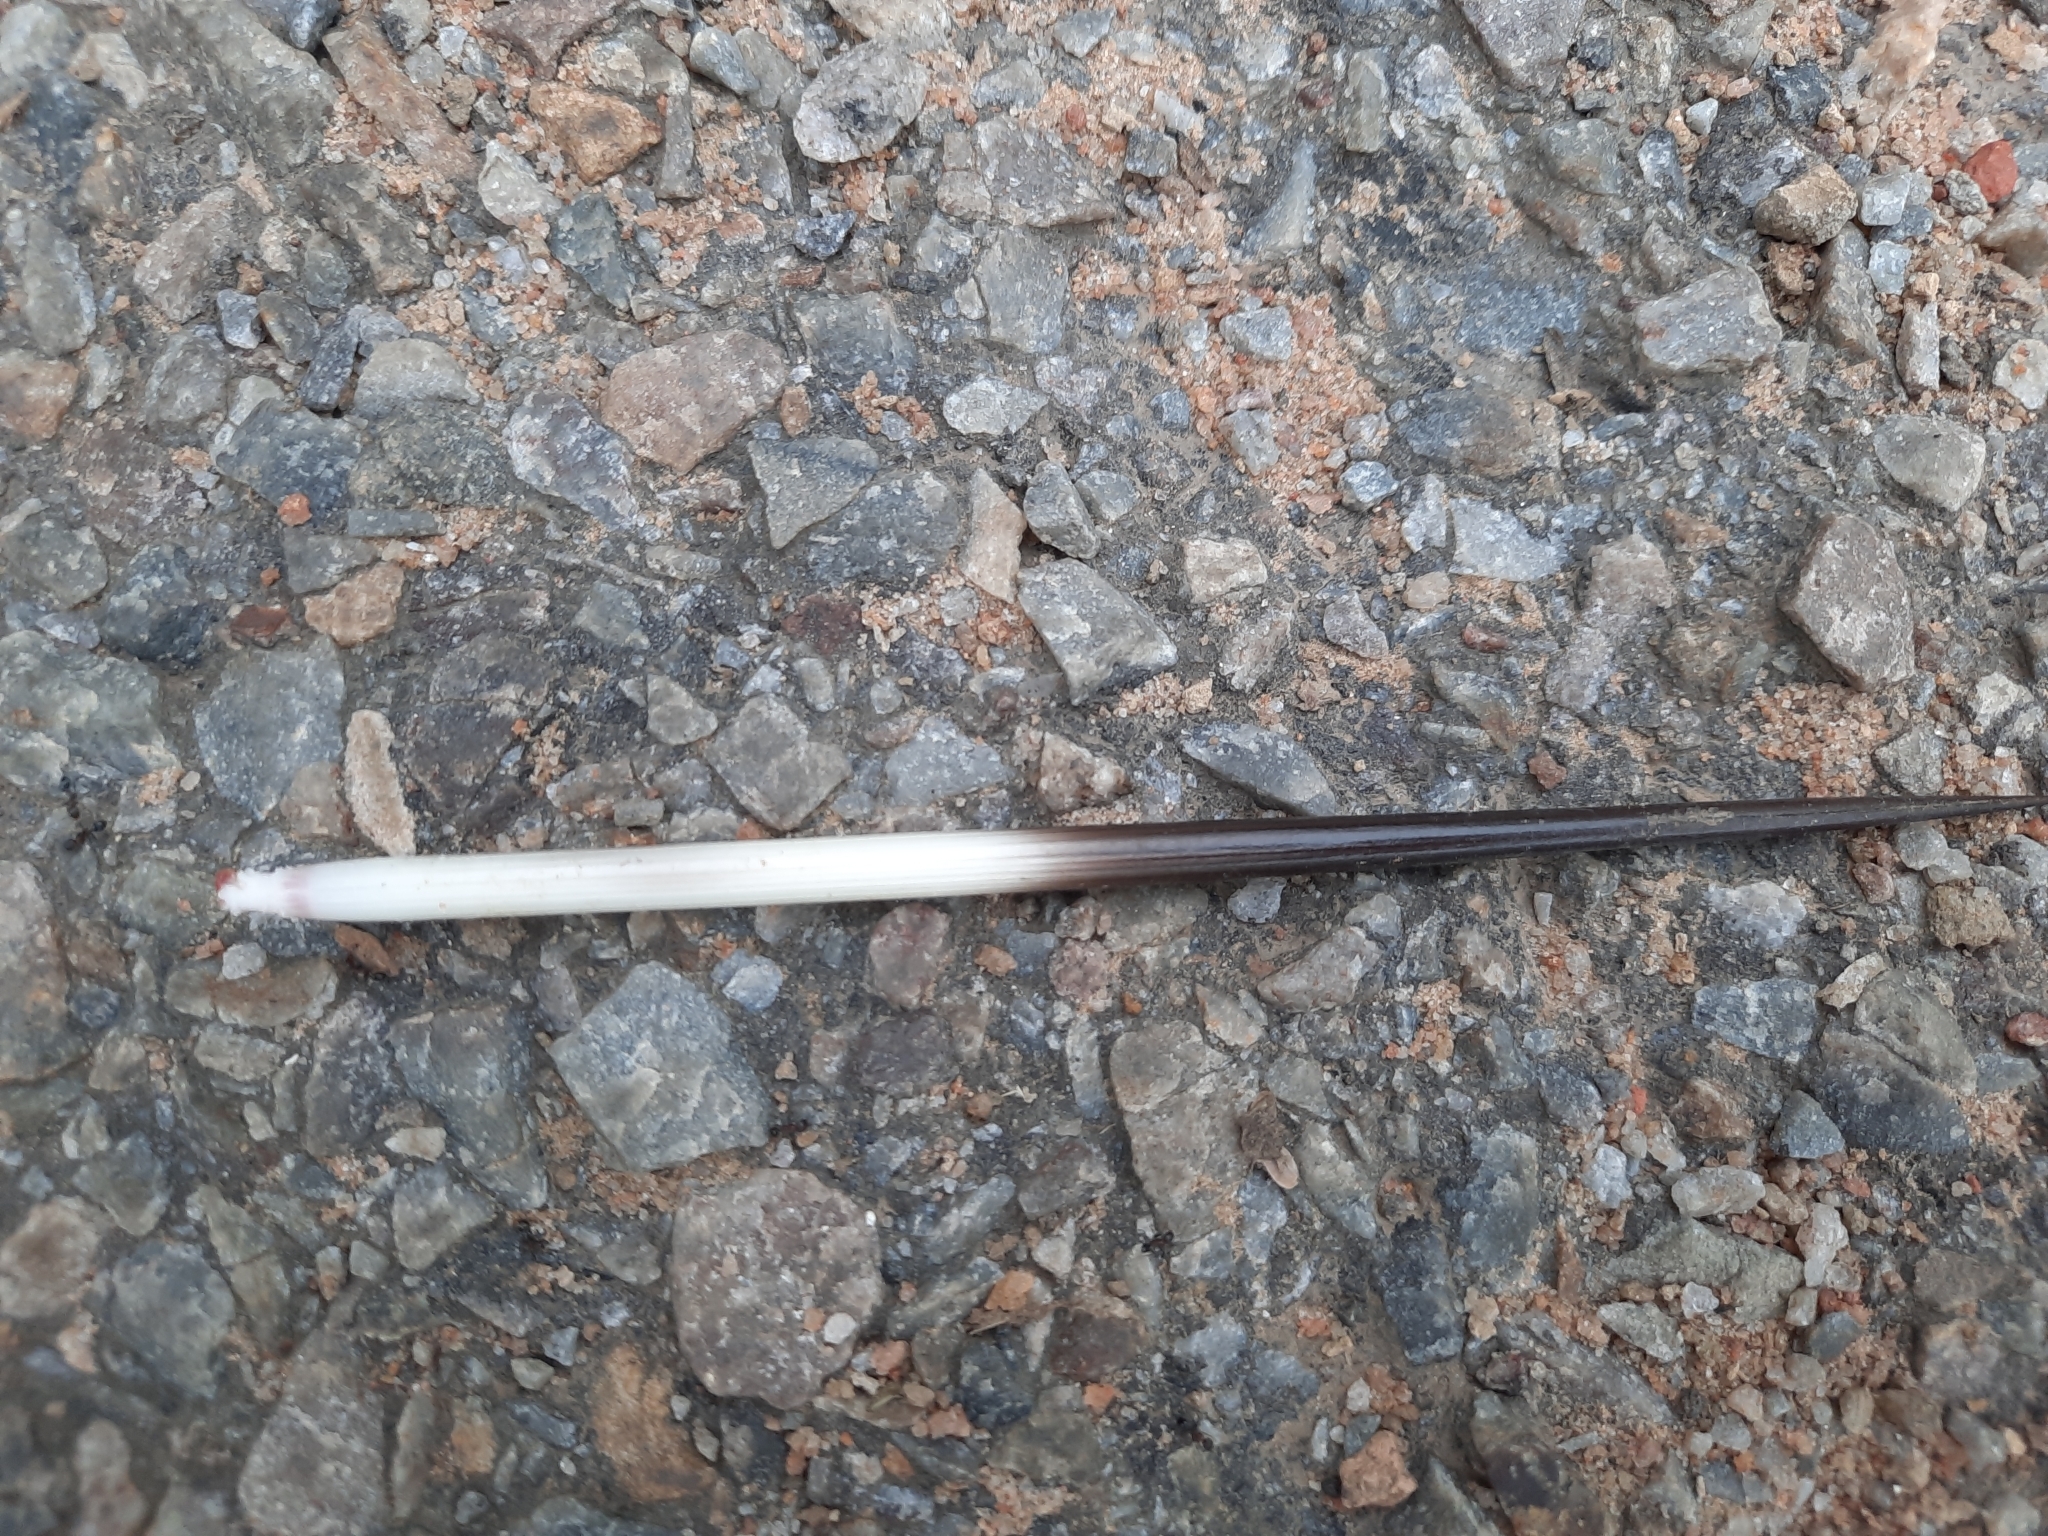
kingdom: Animalia
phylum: Chordata
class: Mammalia
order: Rodentia
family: Hystricidae
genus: Hystrix
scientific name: Hystrix indica
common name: Indian crested porcupine
